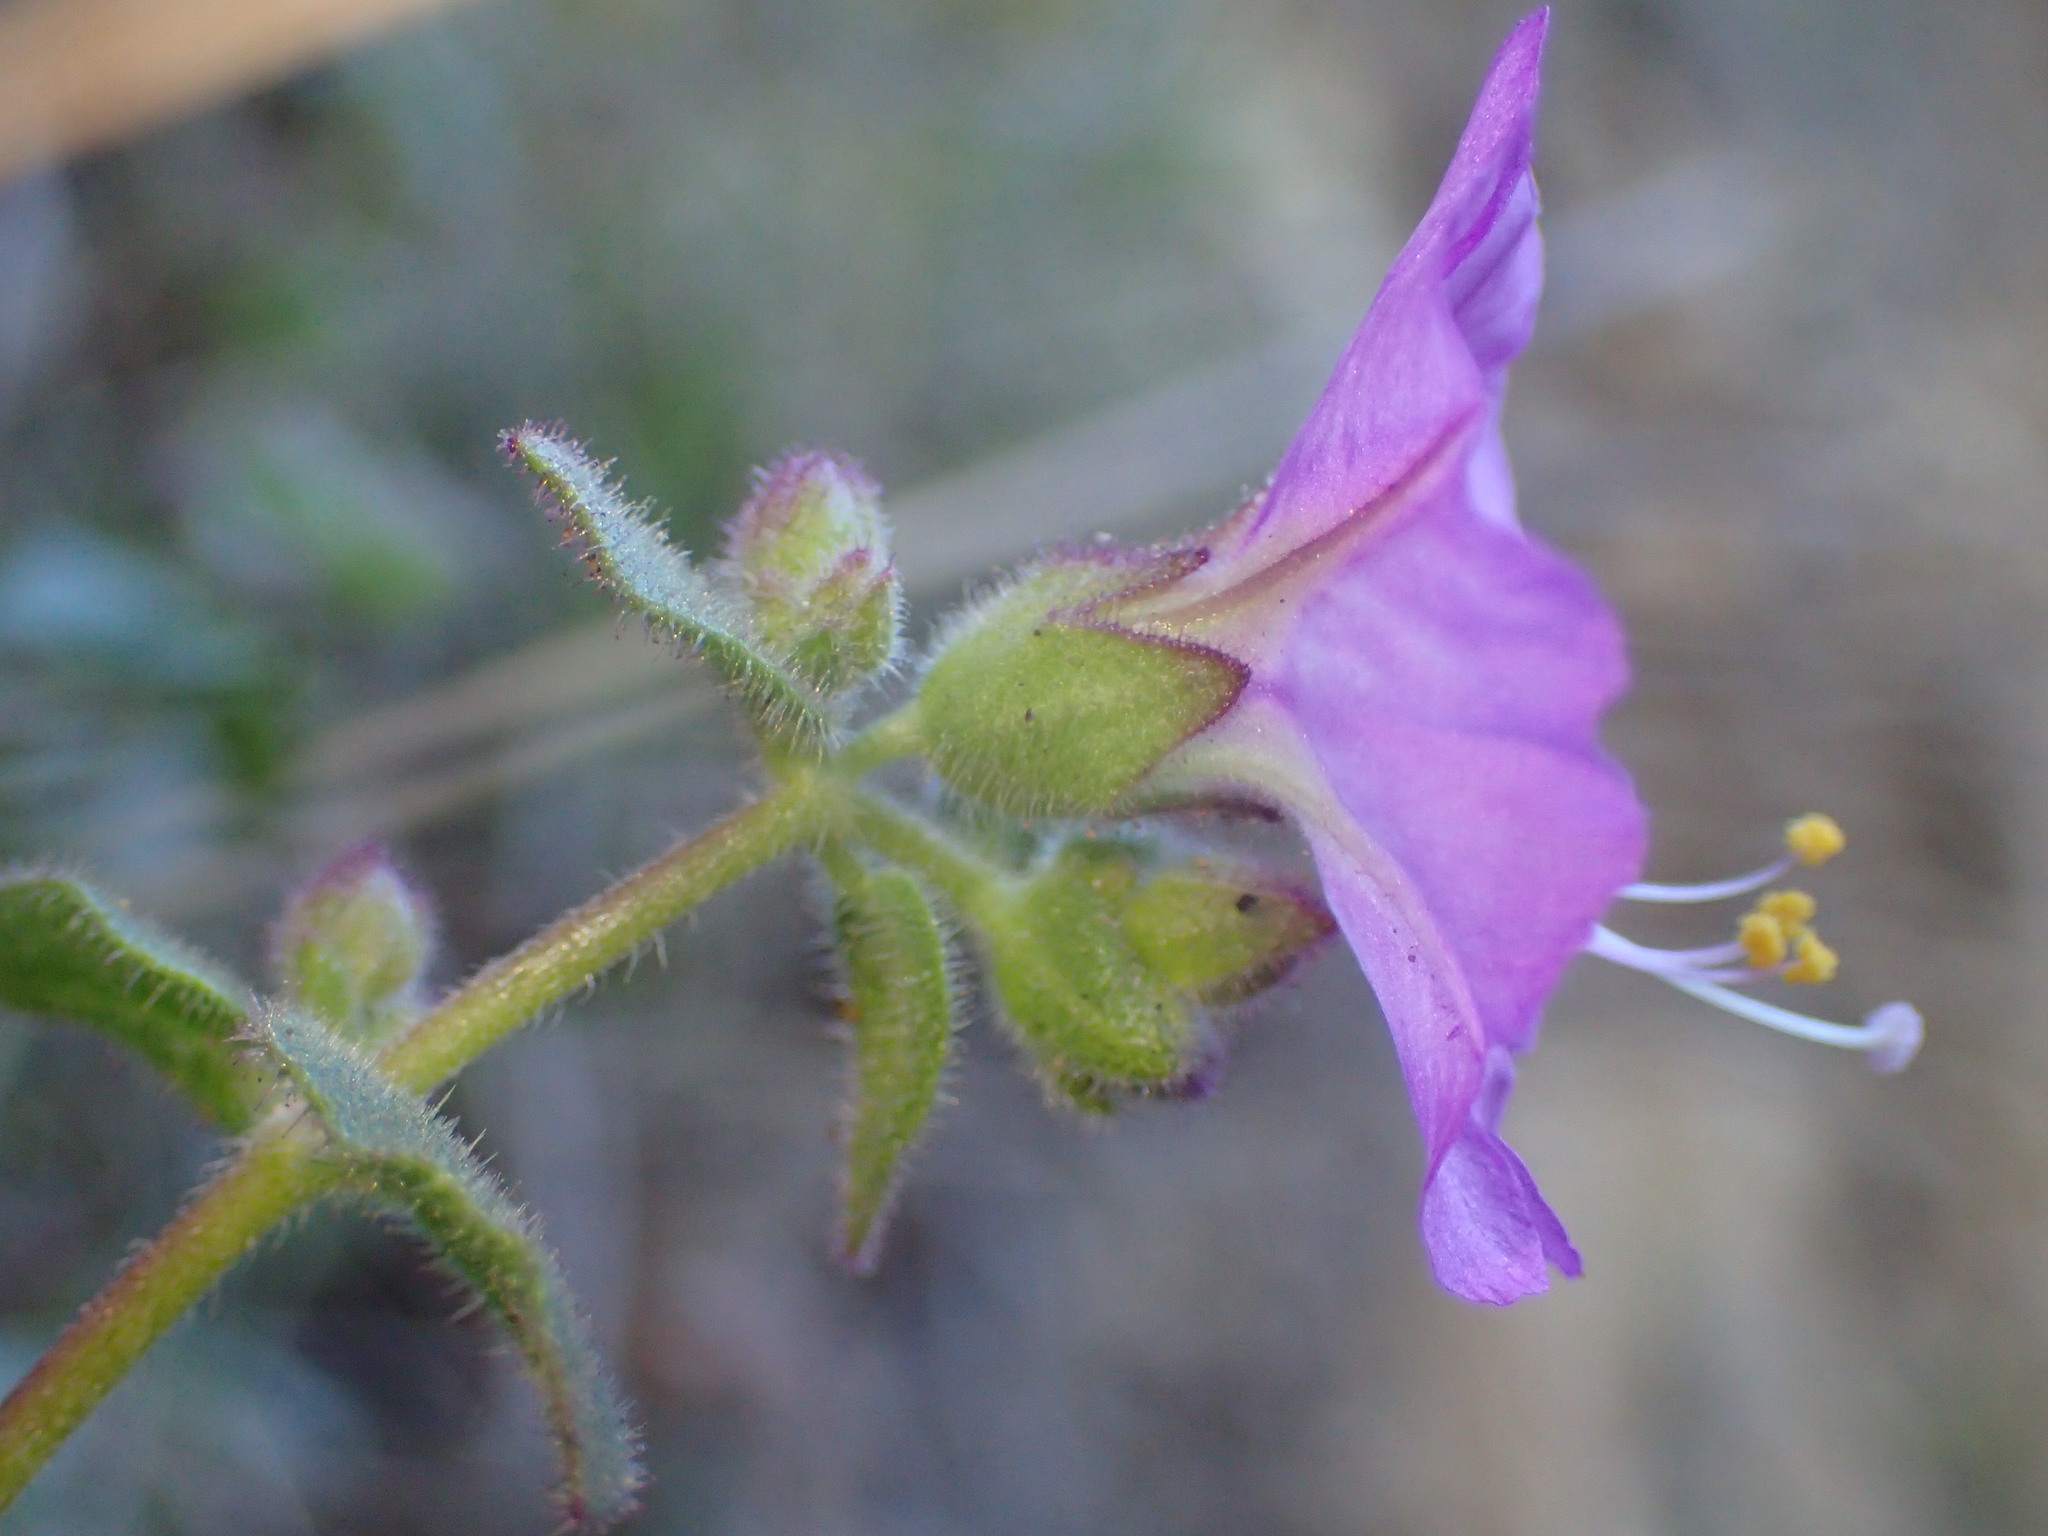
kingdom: Plantae
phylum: Tracheophyta
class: Magnoliopsida
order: Caryophyllales
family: Nyctaginaceae
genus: Mirabilis
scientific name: Mirabilis laevis
